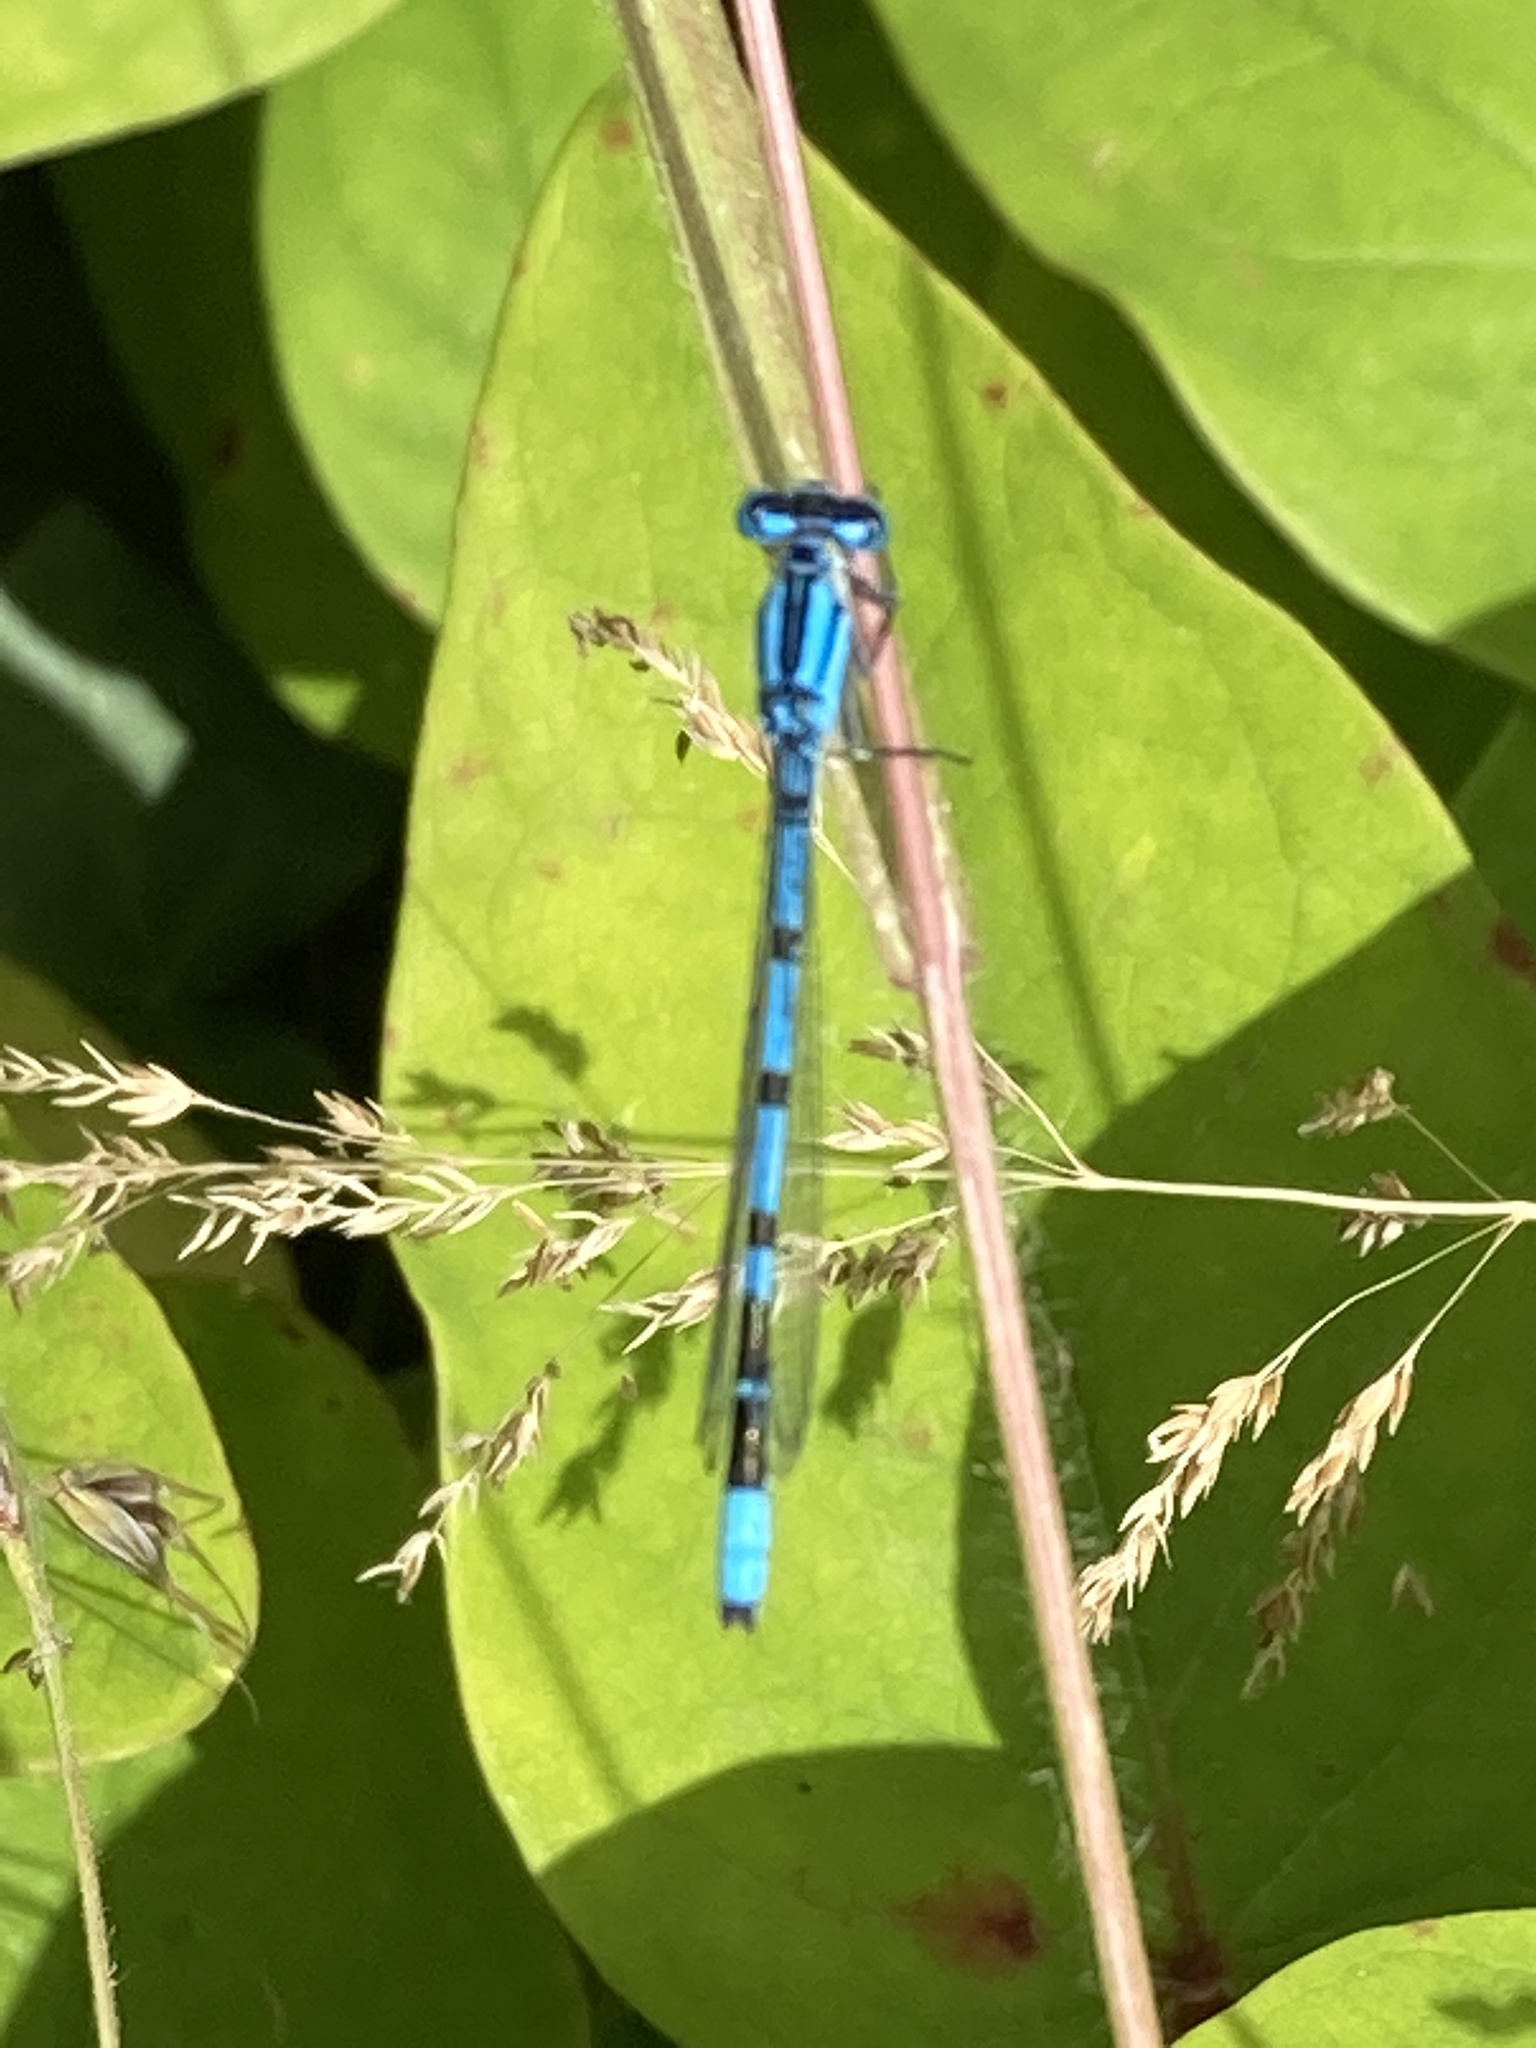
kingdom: Animalia
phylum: Arthropoda
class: Insecta
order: Odonata
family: Coenagrionidae
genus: Enallagma
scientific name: Enallagma cyathigerum
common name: Common blue damselfly
